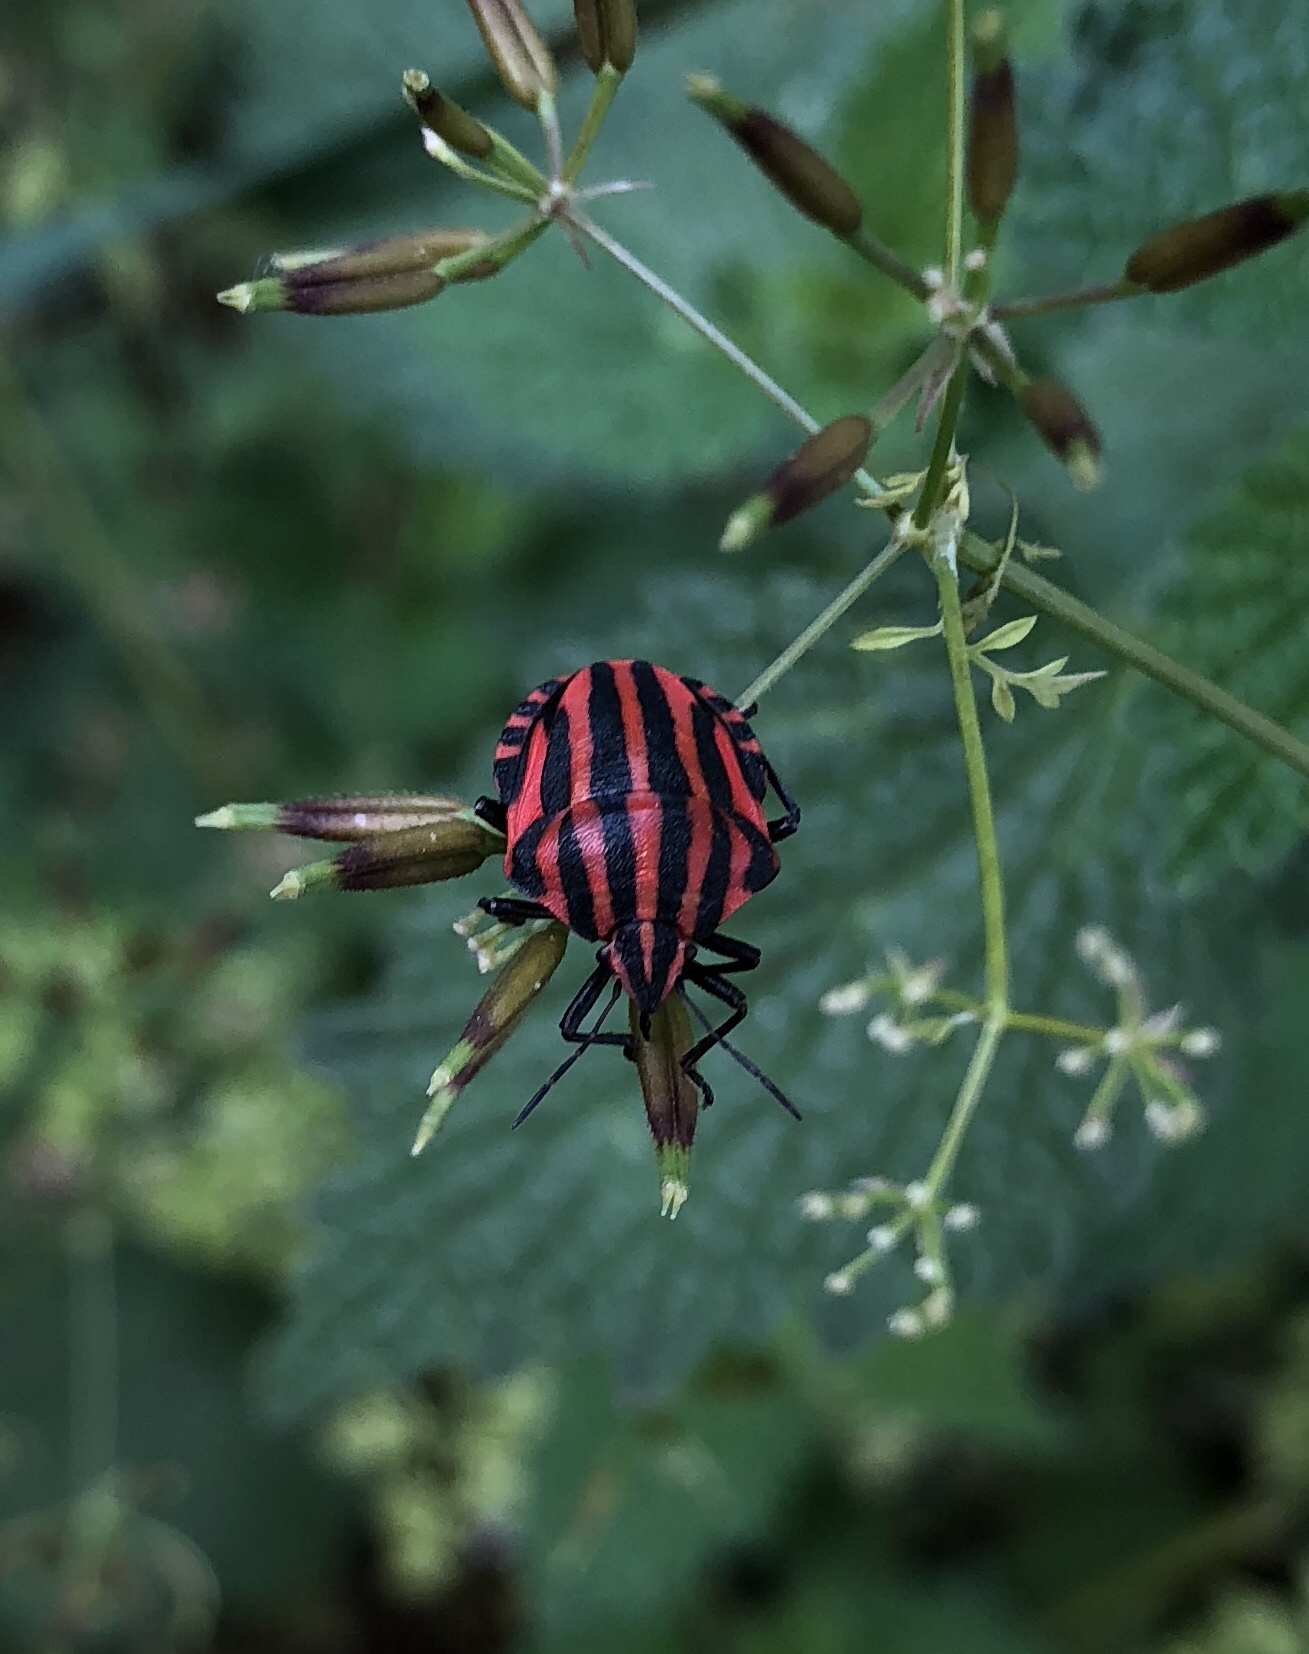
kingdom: Animalia
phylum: Arthropoda
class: Insecta
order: Hemiptera
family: Pentatomidae
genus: Graphosoma
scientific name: Graphosoma italicum
